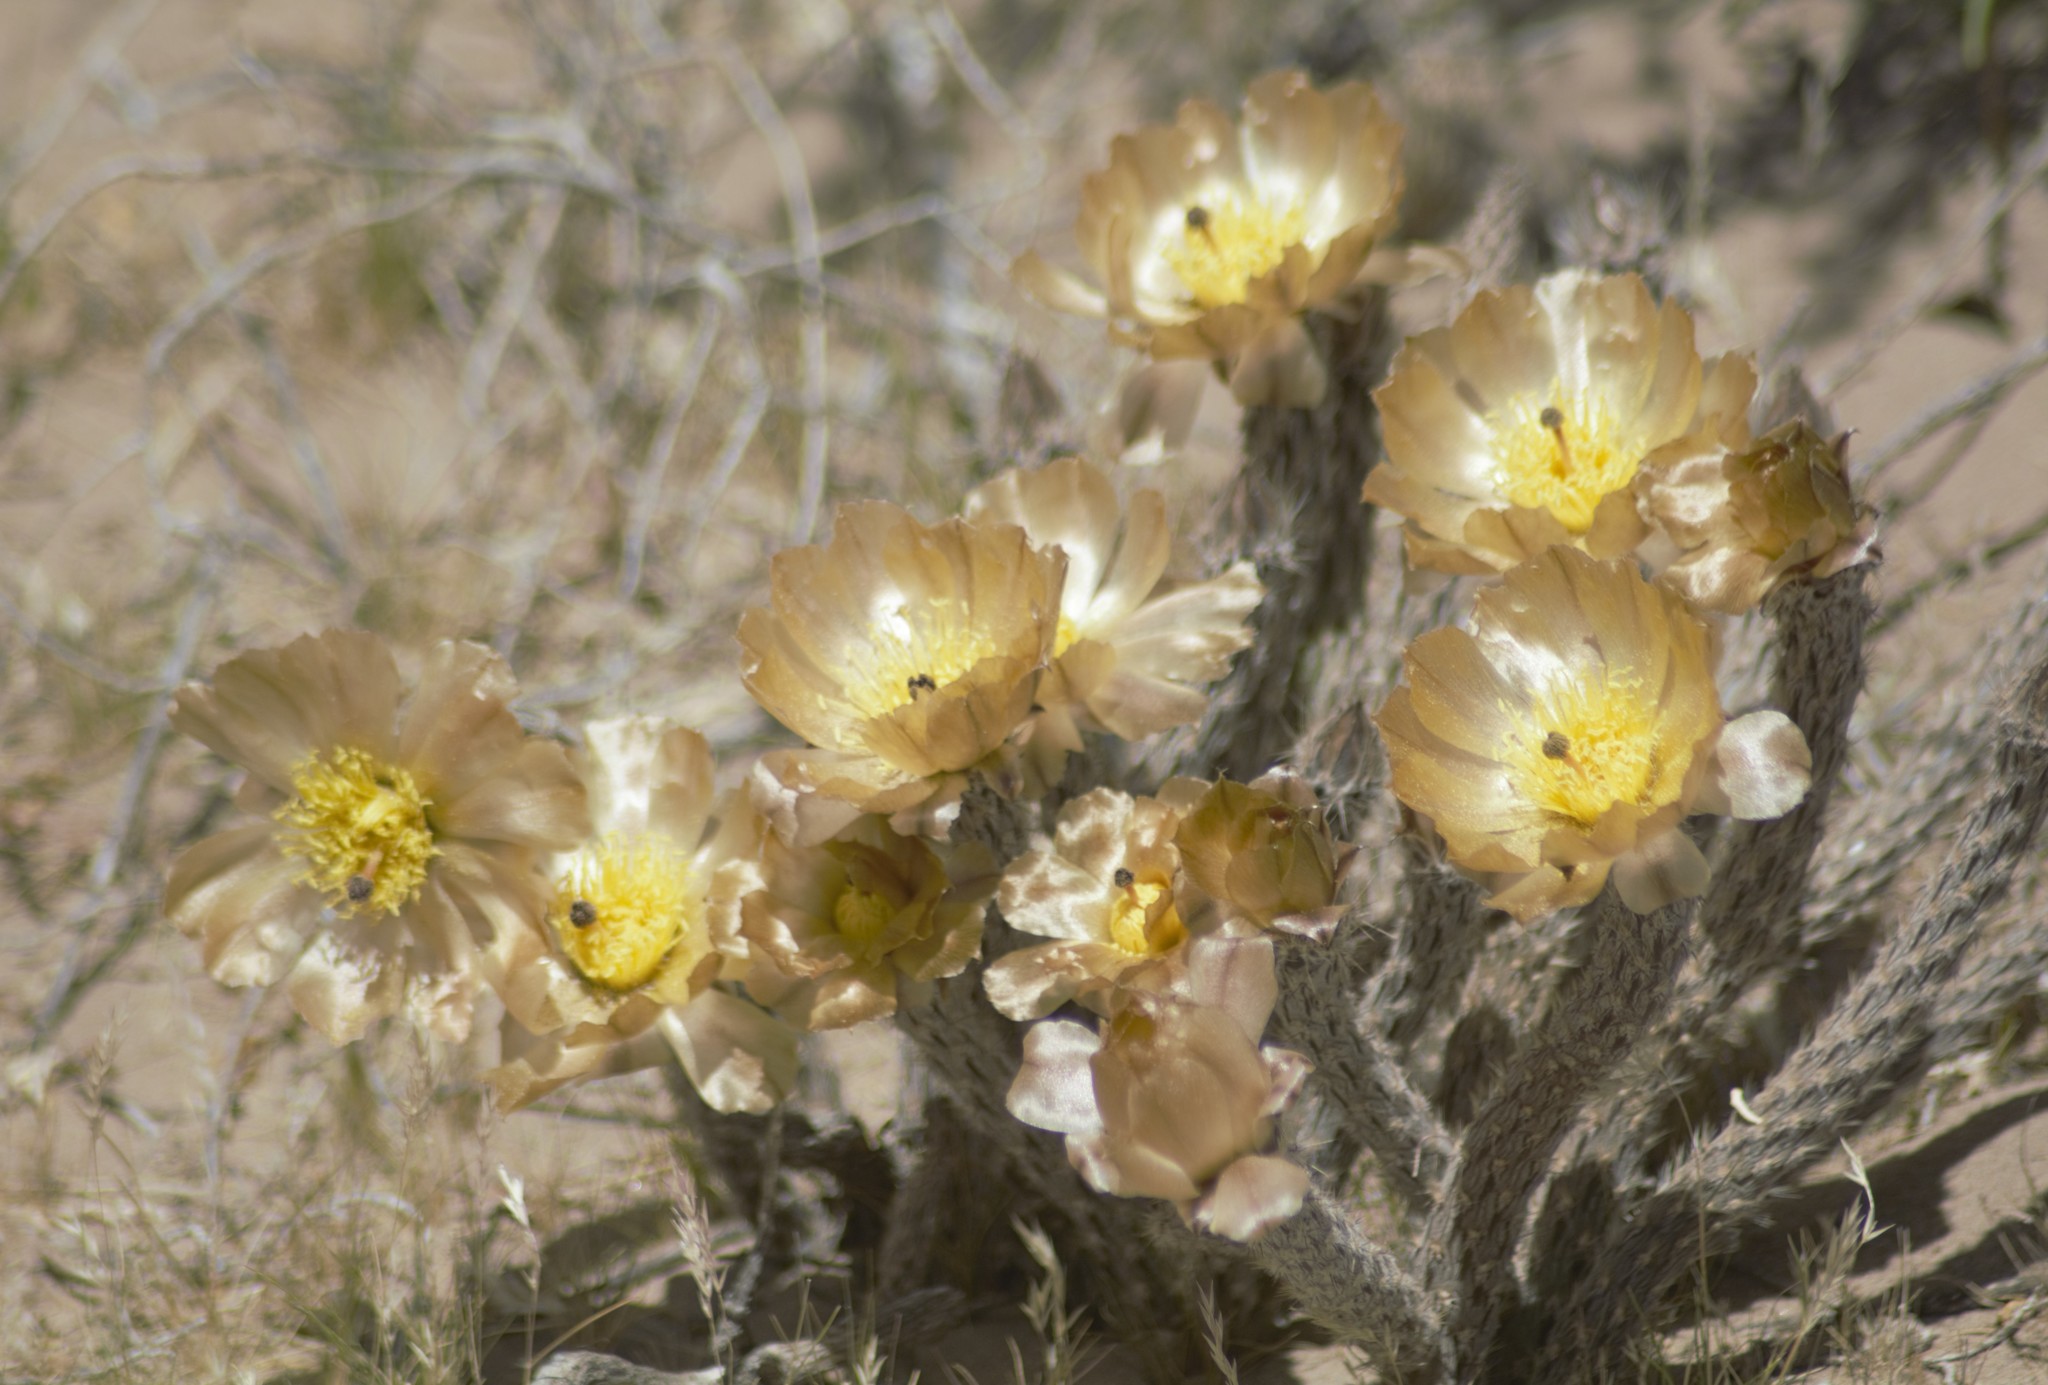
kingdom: Plantae
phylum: Tracheophyta
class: Magnoliopsida
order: Caryophyllales
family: Cactaceae
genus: Pterocactus
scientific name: Pterocactus tuberosus
